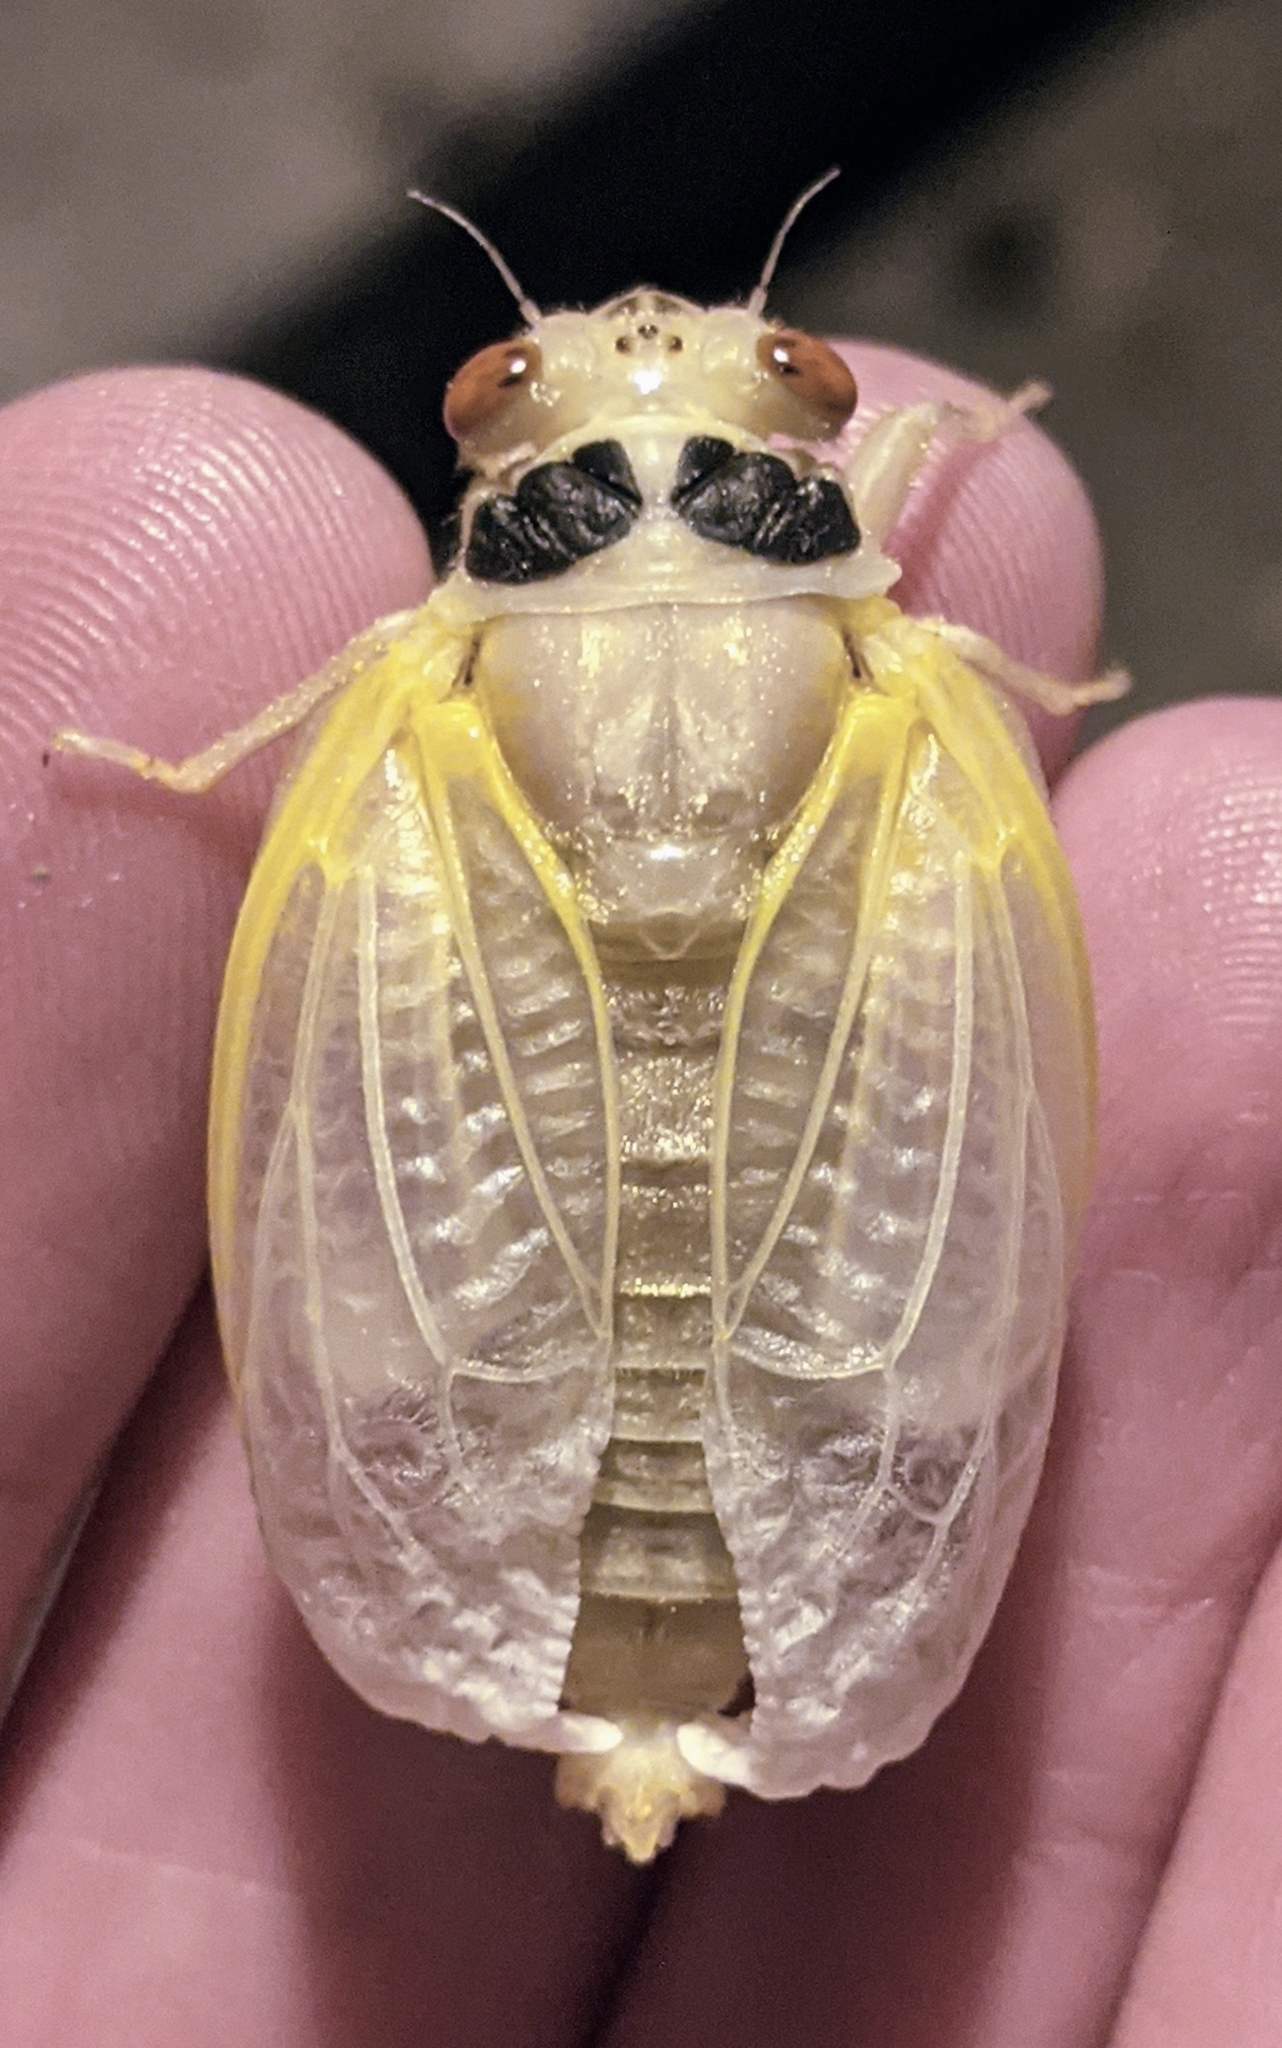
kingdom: Animalia
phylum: Arthropoda
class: Insecta
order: Hemiptera
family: Cicadidae
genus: Magicicada
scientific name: Magicicada
